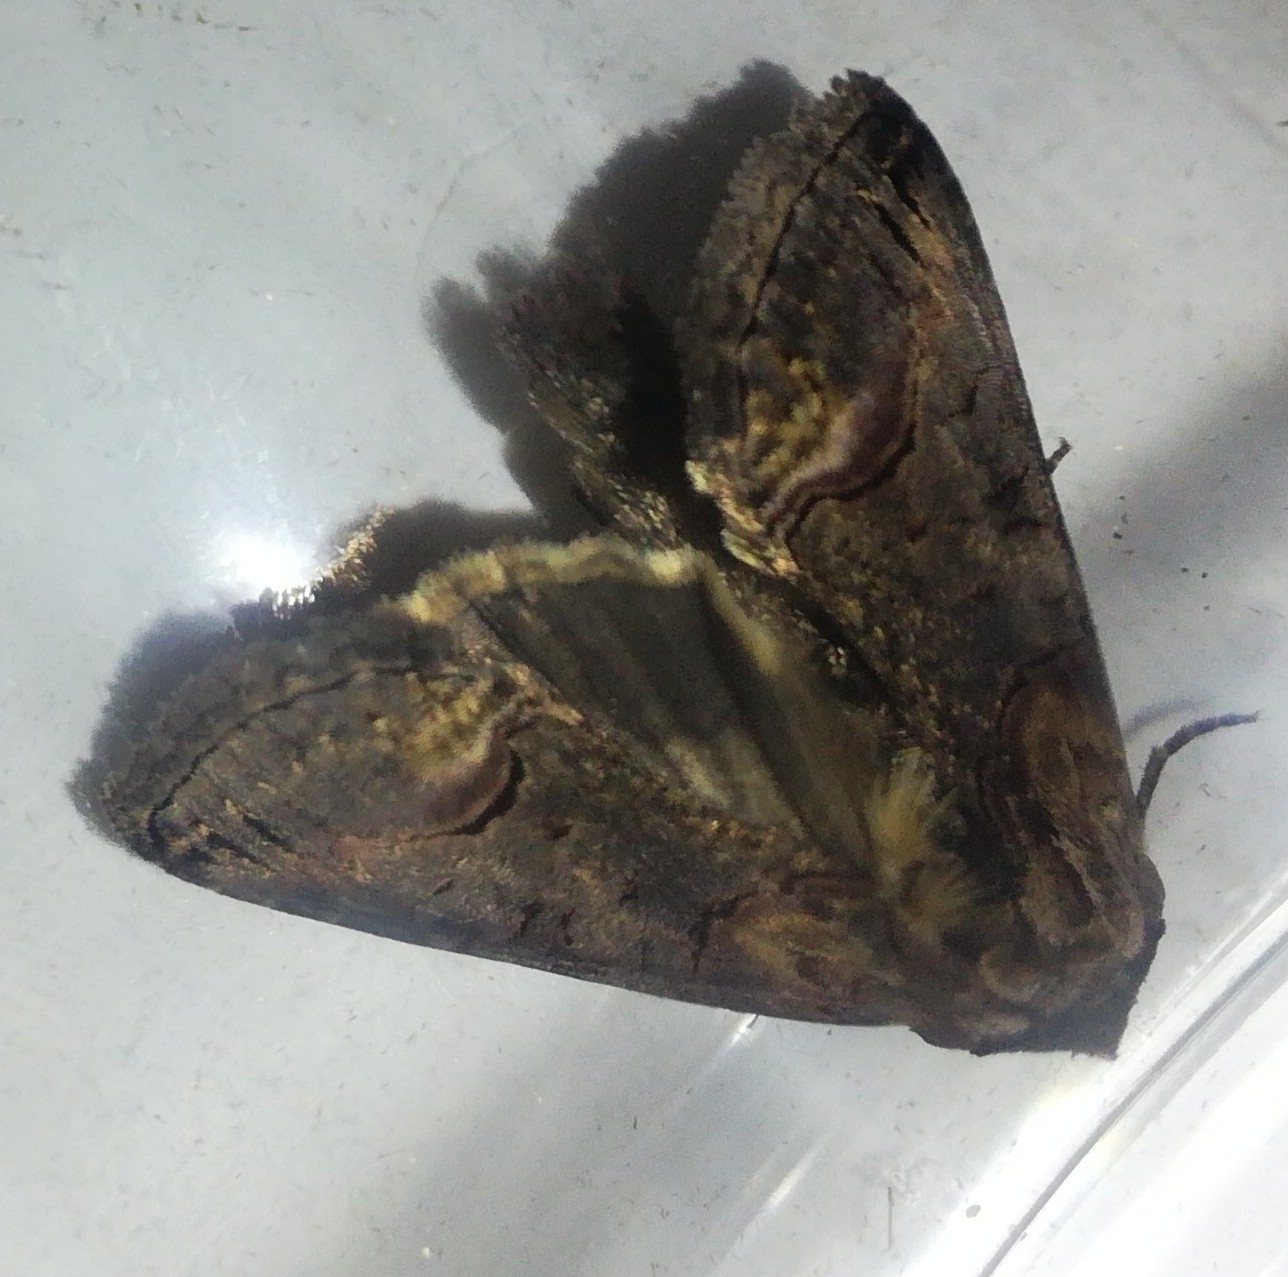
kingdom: Animalia
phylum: Arthropoda
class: Insecta
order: Lepidoptera
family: Noctuidae
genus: Abrostola
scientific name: Abrostola triplasia
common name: Dark spectacle
